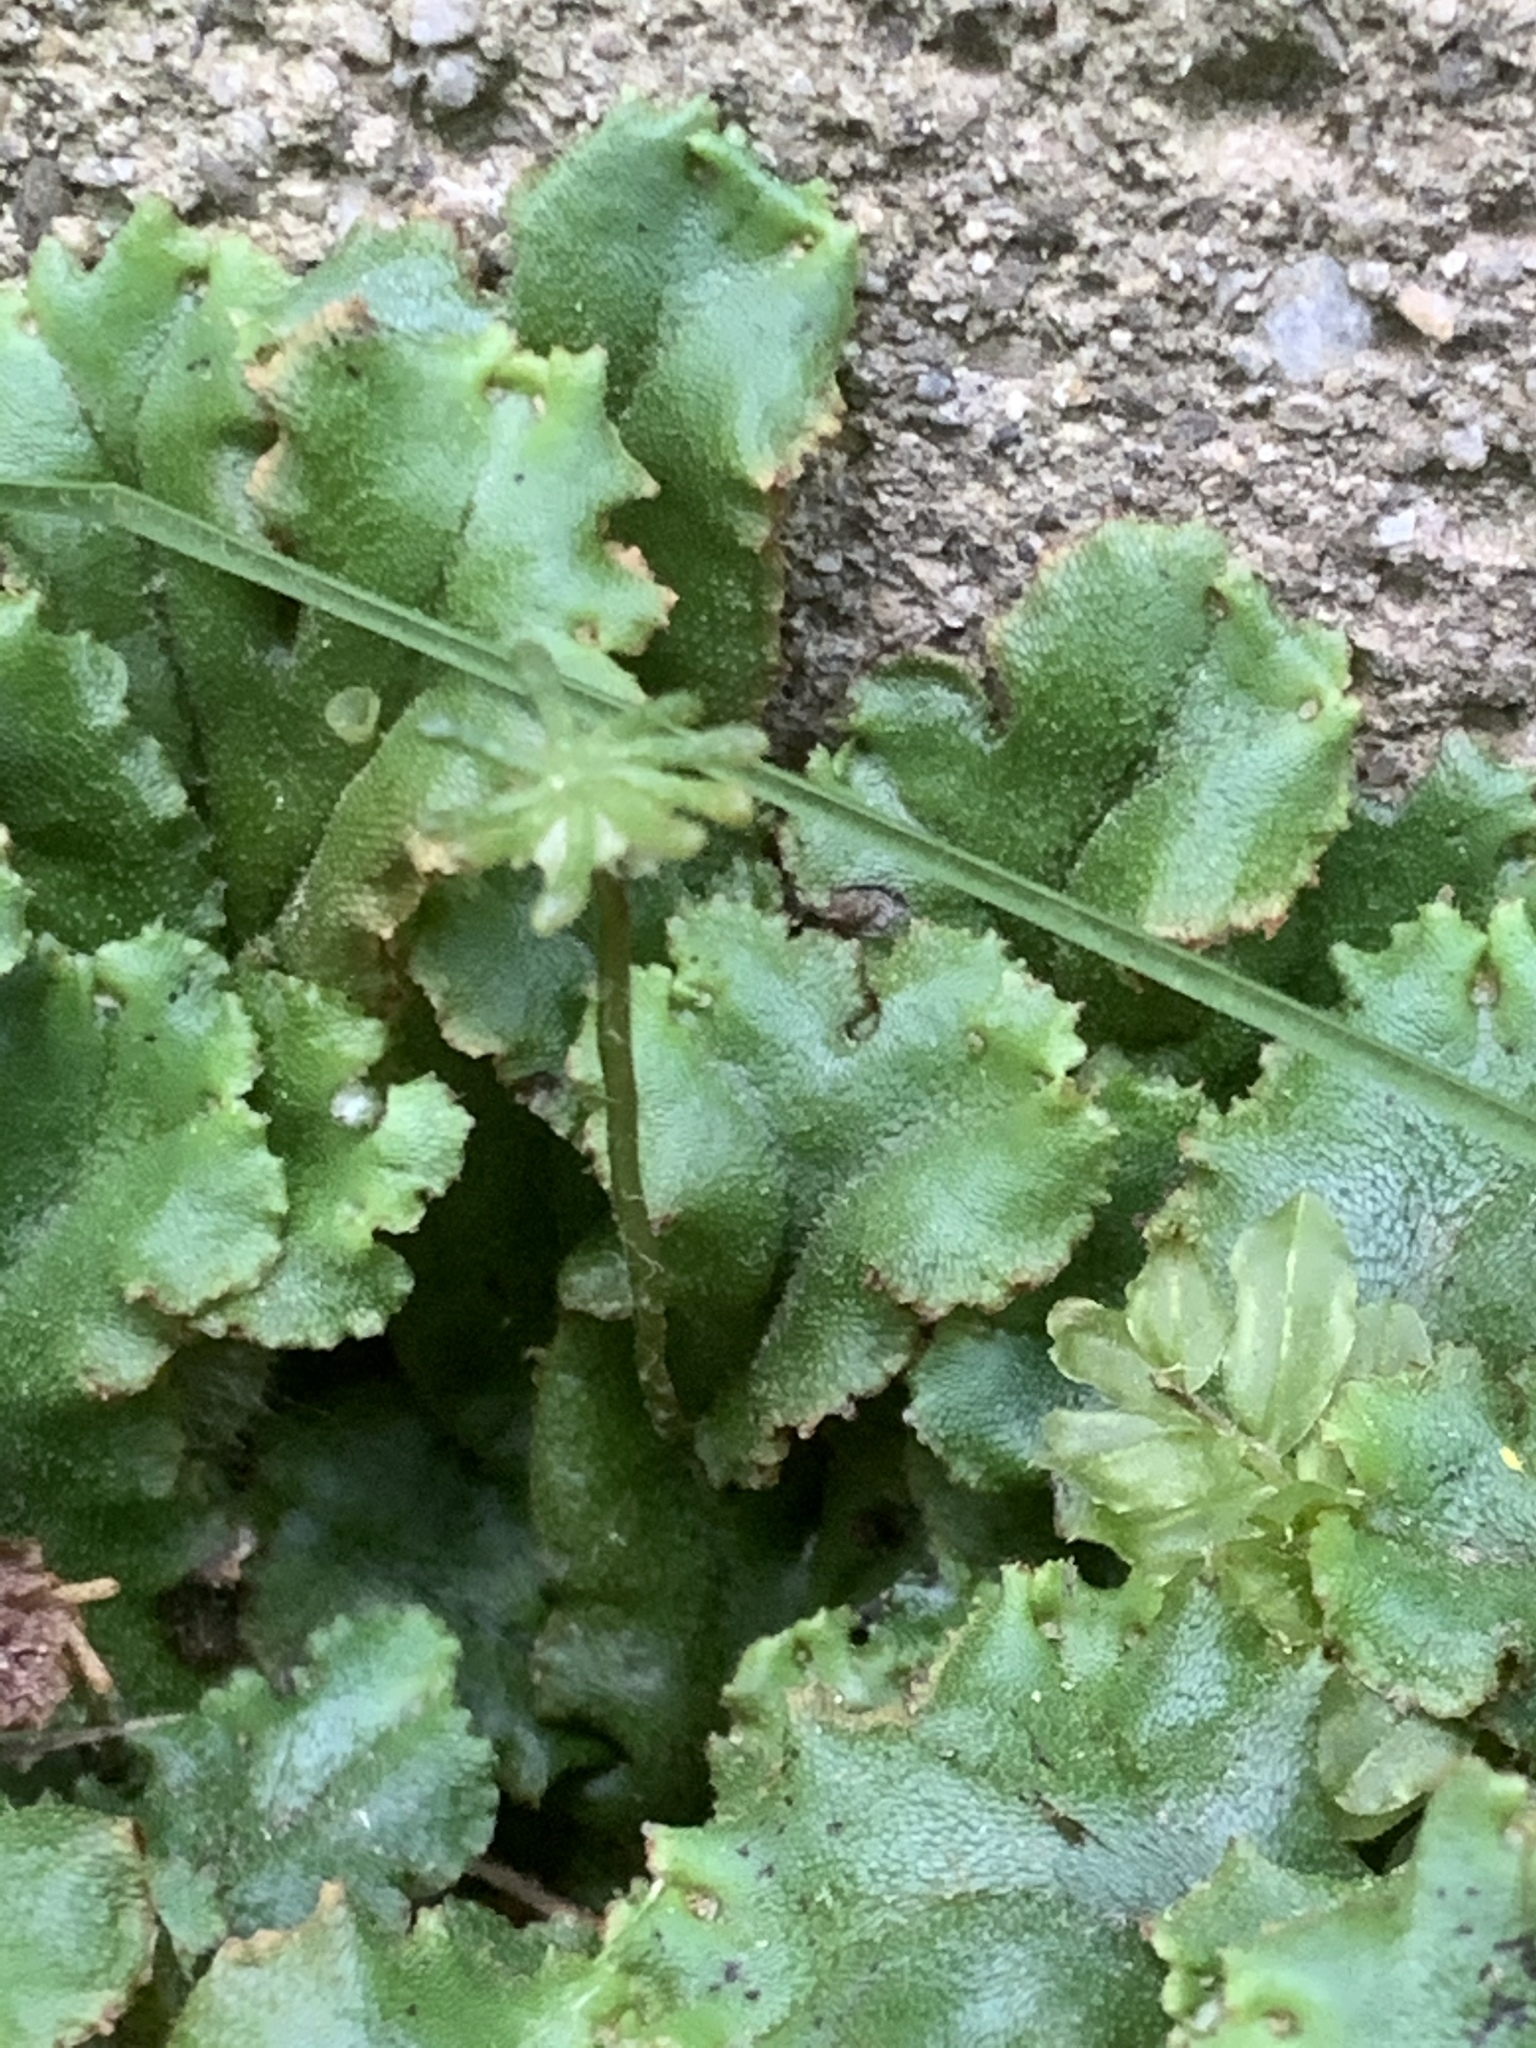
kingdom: Plantae
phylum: Marchantiophyta
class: Marchantiopsida
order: Marchantiales
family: Marchantiaceae
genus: Marchantia
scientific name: Marchantia polymorpha
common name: Common liverwort
